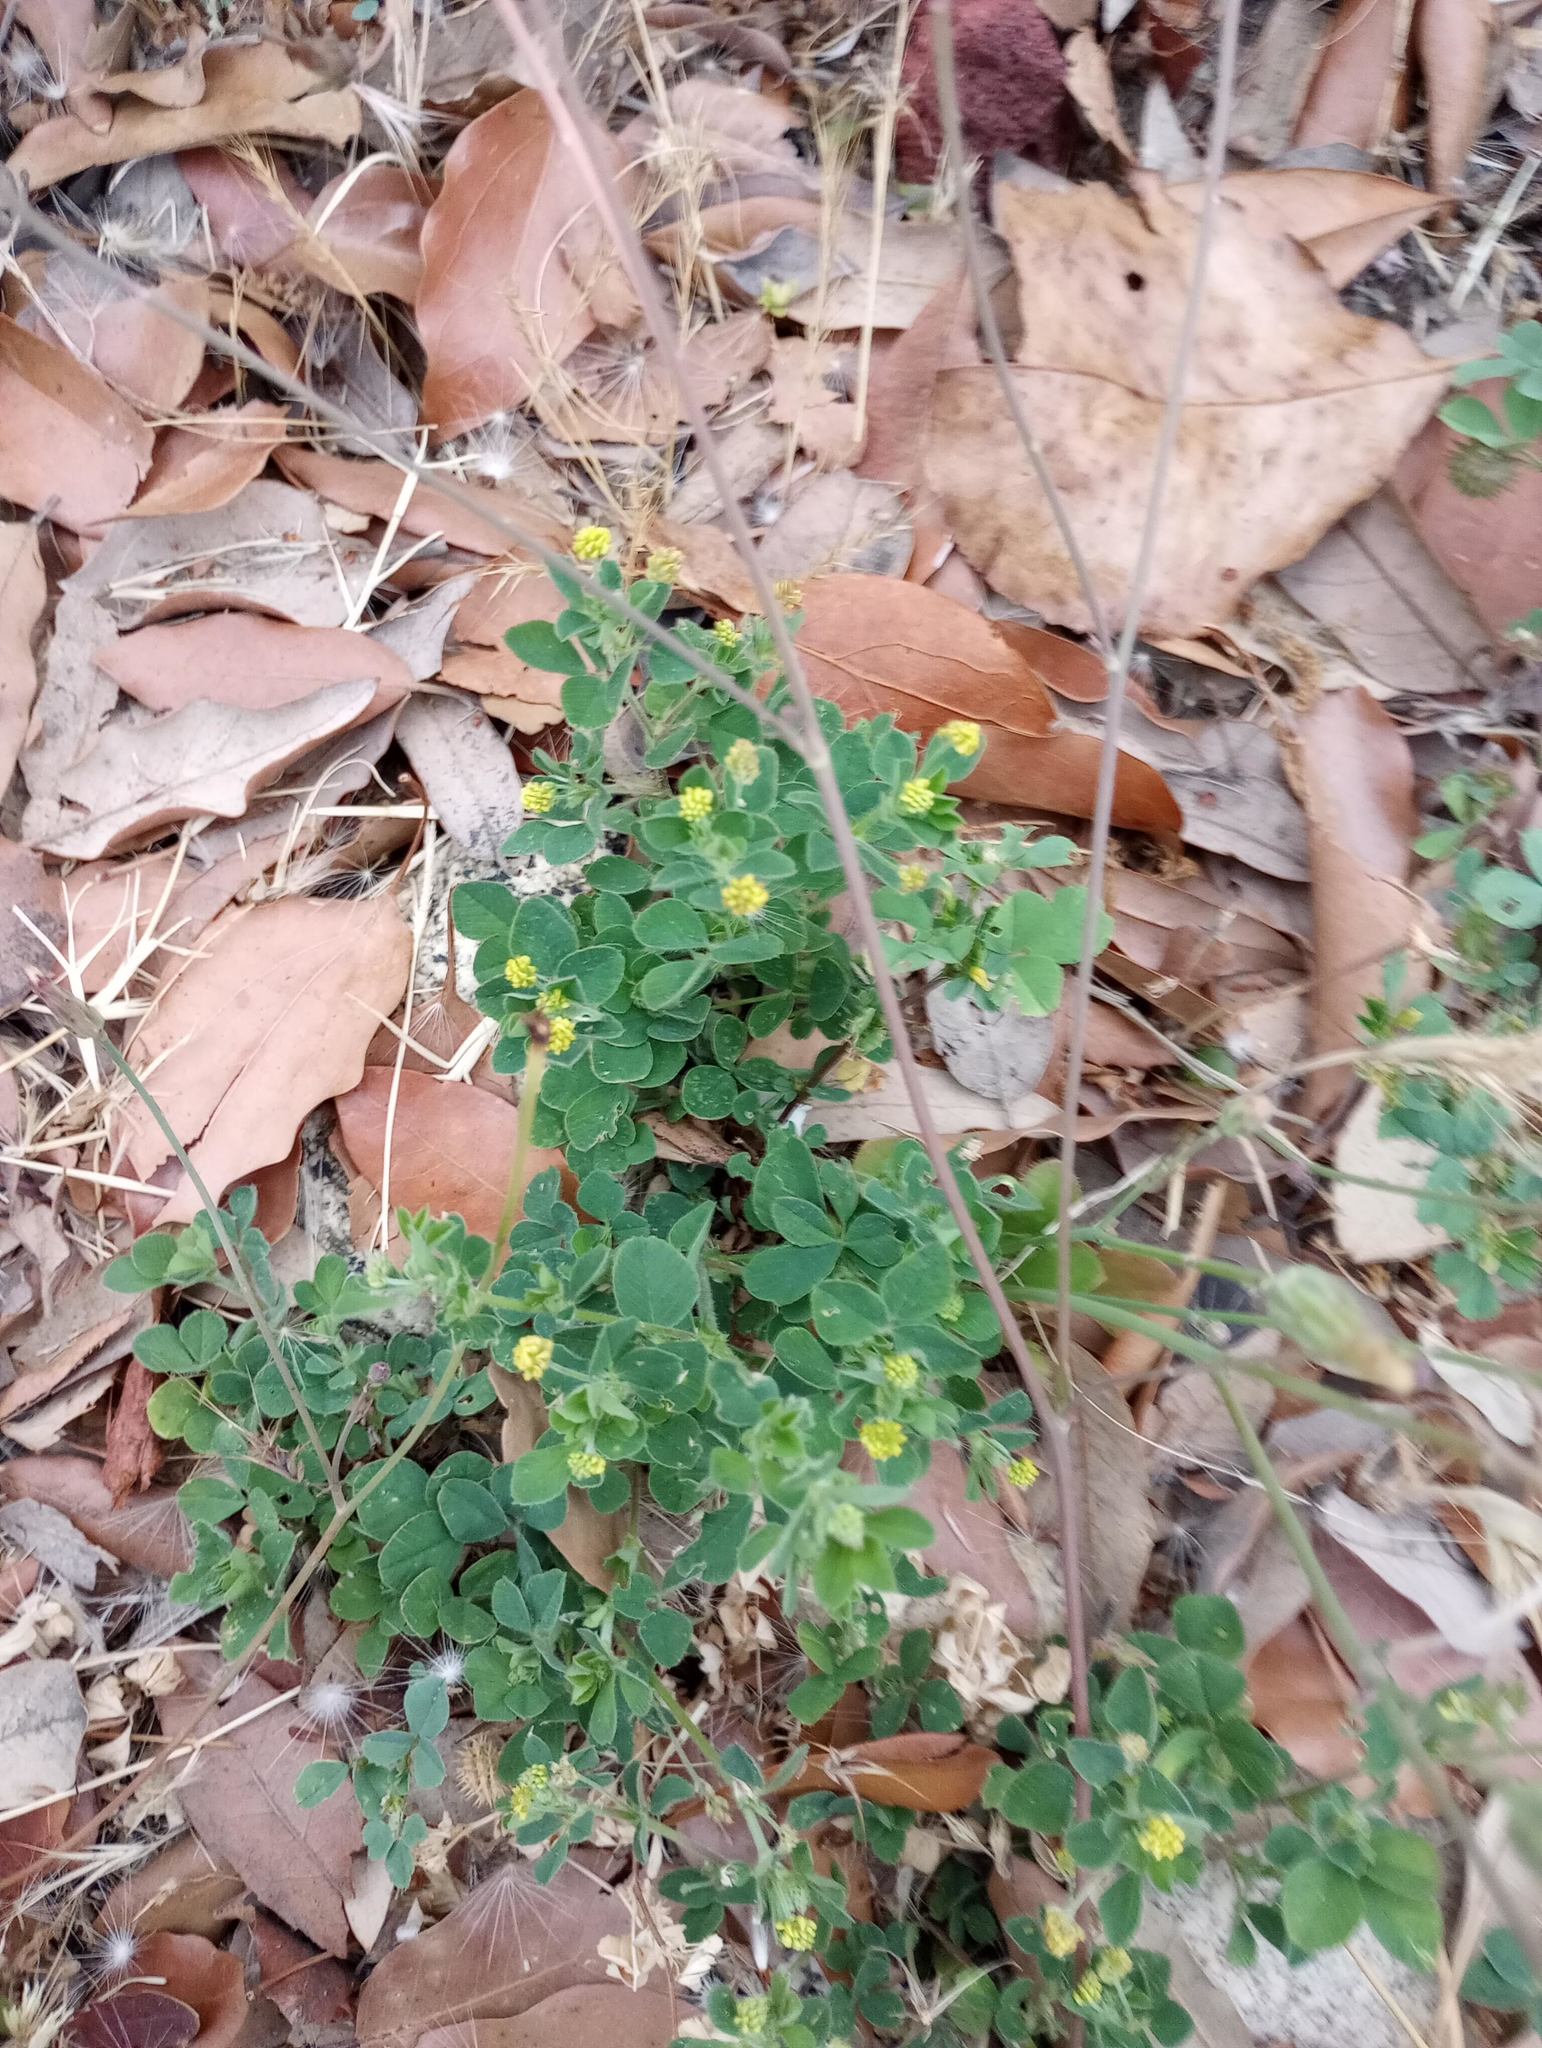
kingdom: Plantae
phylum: Tracheophyta
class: Magnoliopsida
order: Fabales
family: Fabaceae
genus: Medicago
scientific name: Medicago lupulina
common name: Black medick
